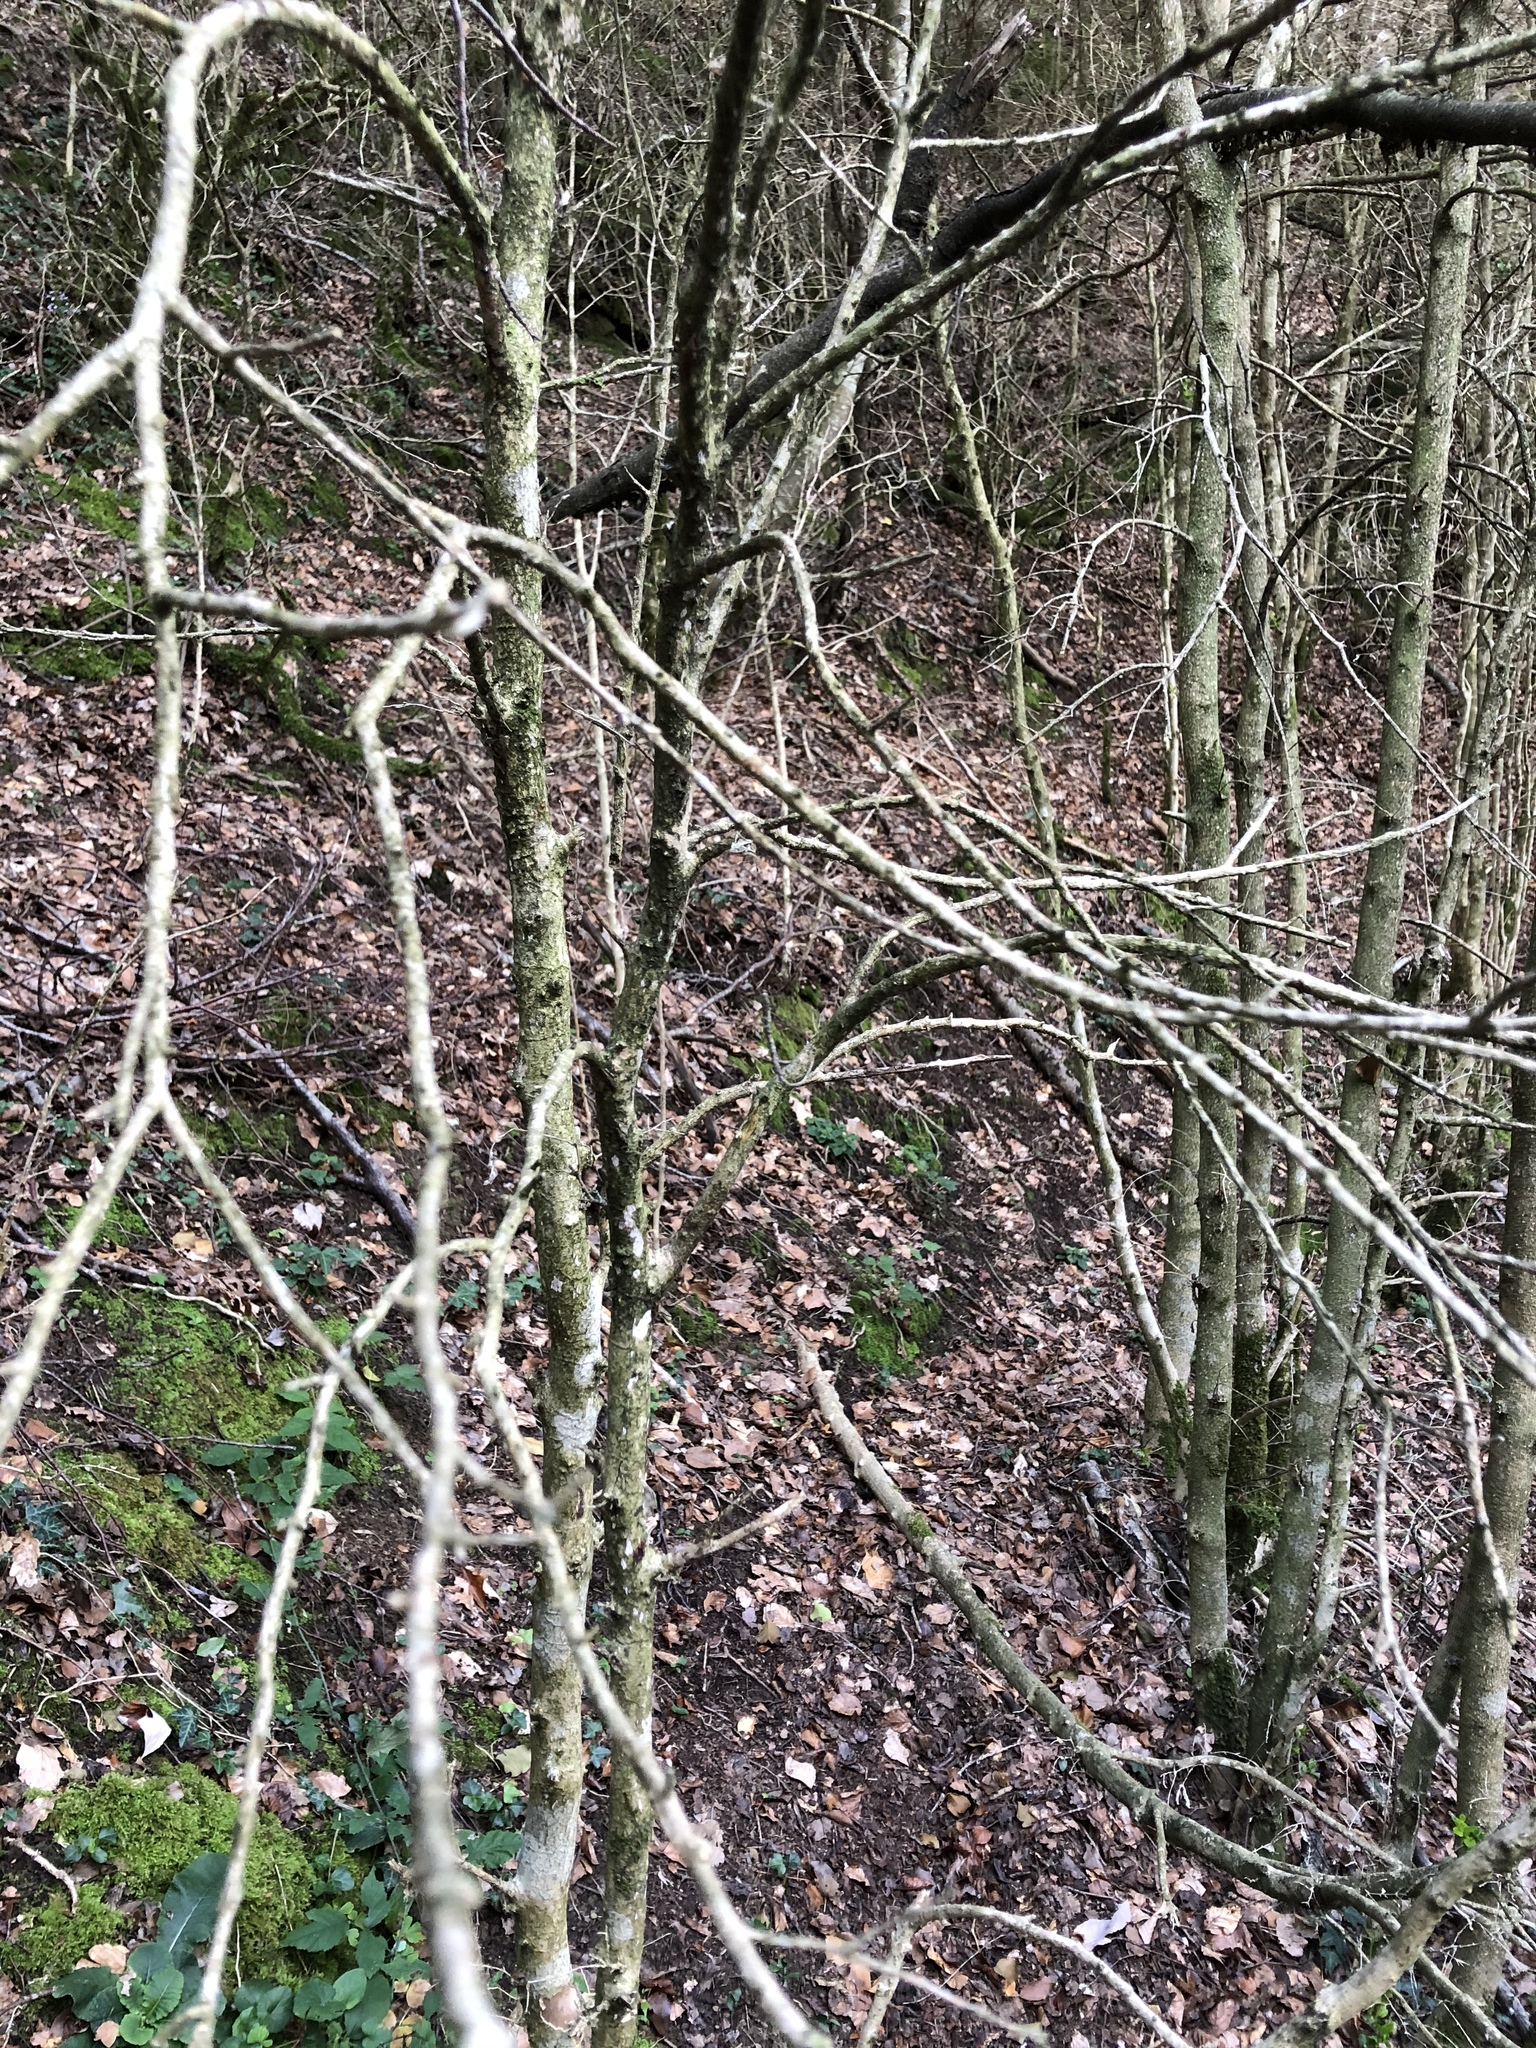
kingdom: Plantae
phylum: Tracheophyta
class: Magnoliopsida
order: Buxales
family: Buxaceae
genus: Buxus
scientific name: Buxus sempervirens
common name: Box
